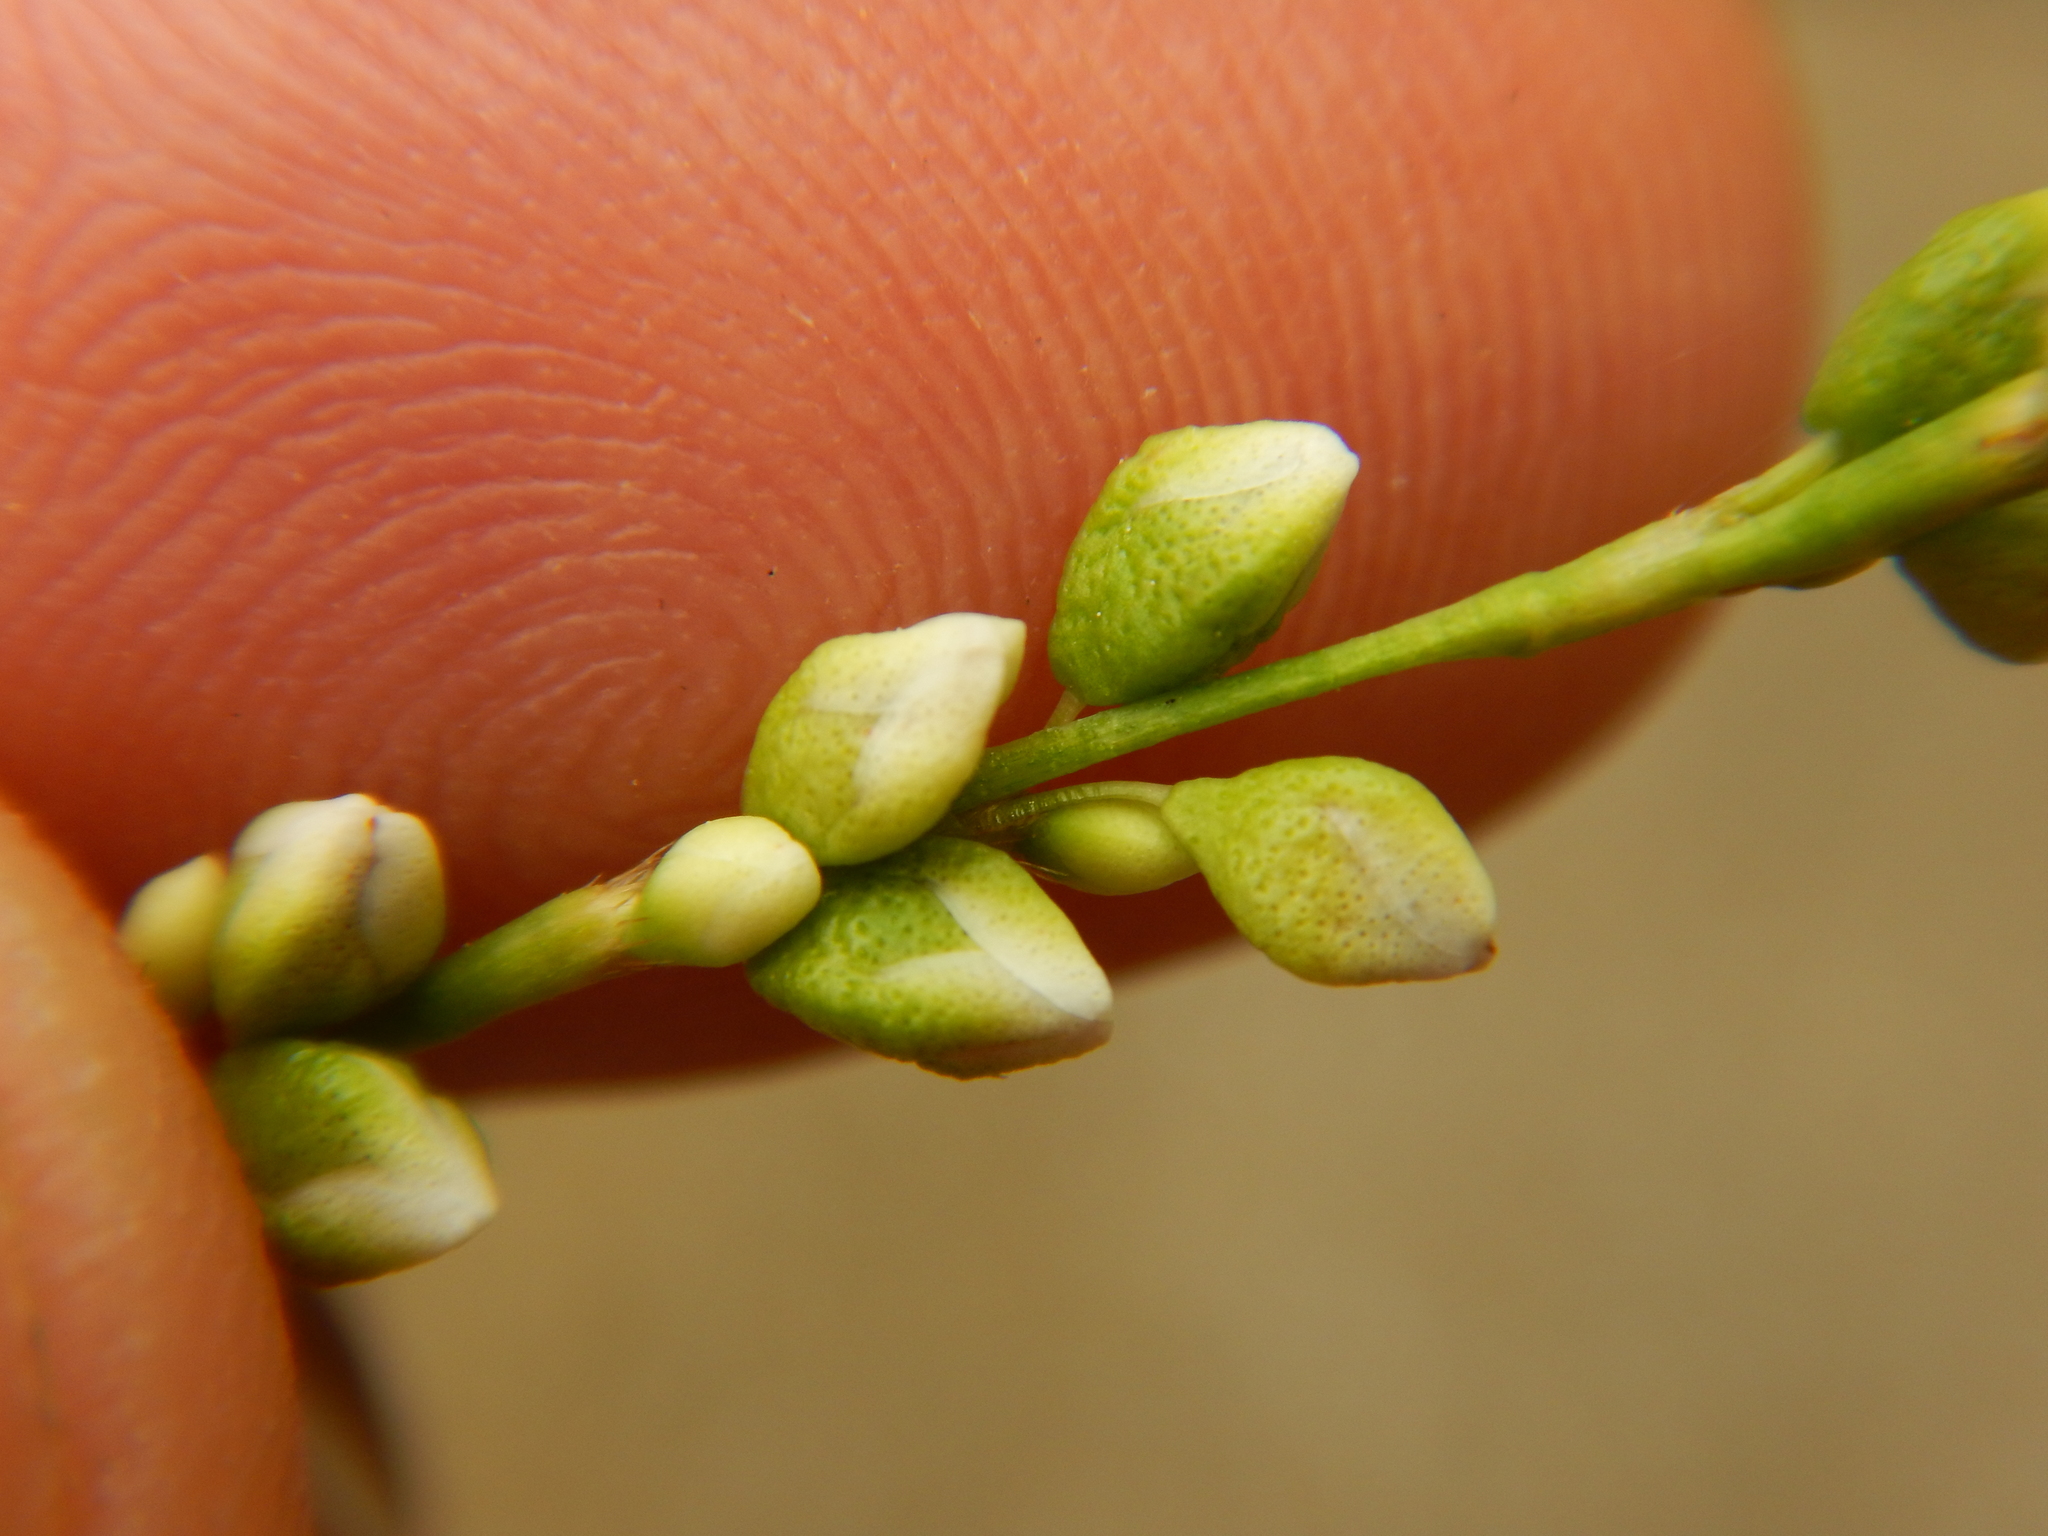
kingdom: Plantae
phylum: Tracheophyta
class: Magnoliopsida
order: Caryophyllales
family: Polygonaceae
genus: Persicaria
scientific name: Persicaria punctata
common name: Dotted smartweed
